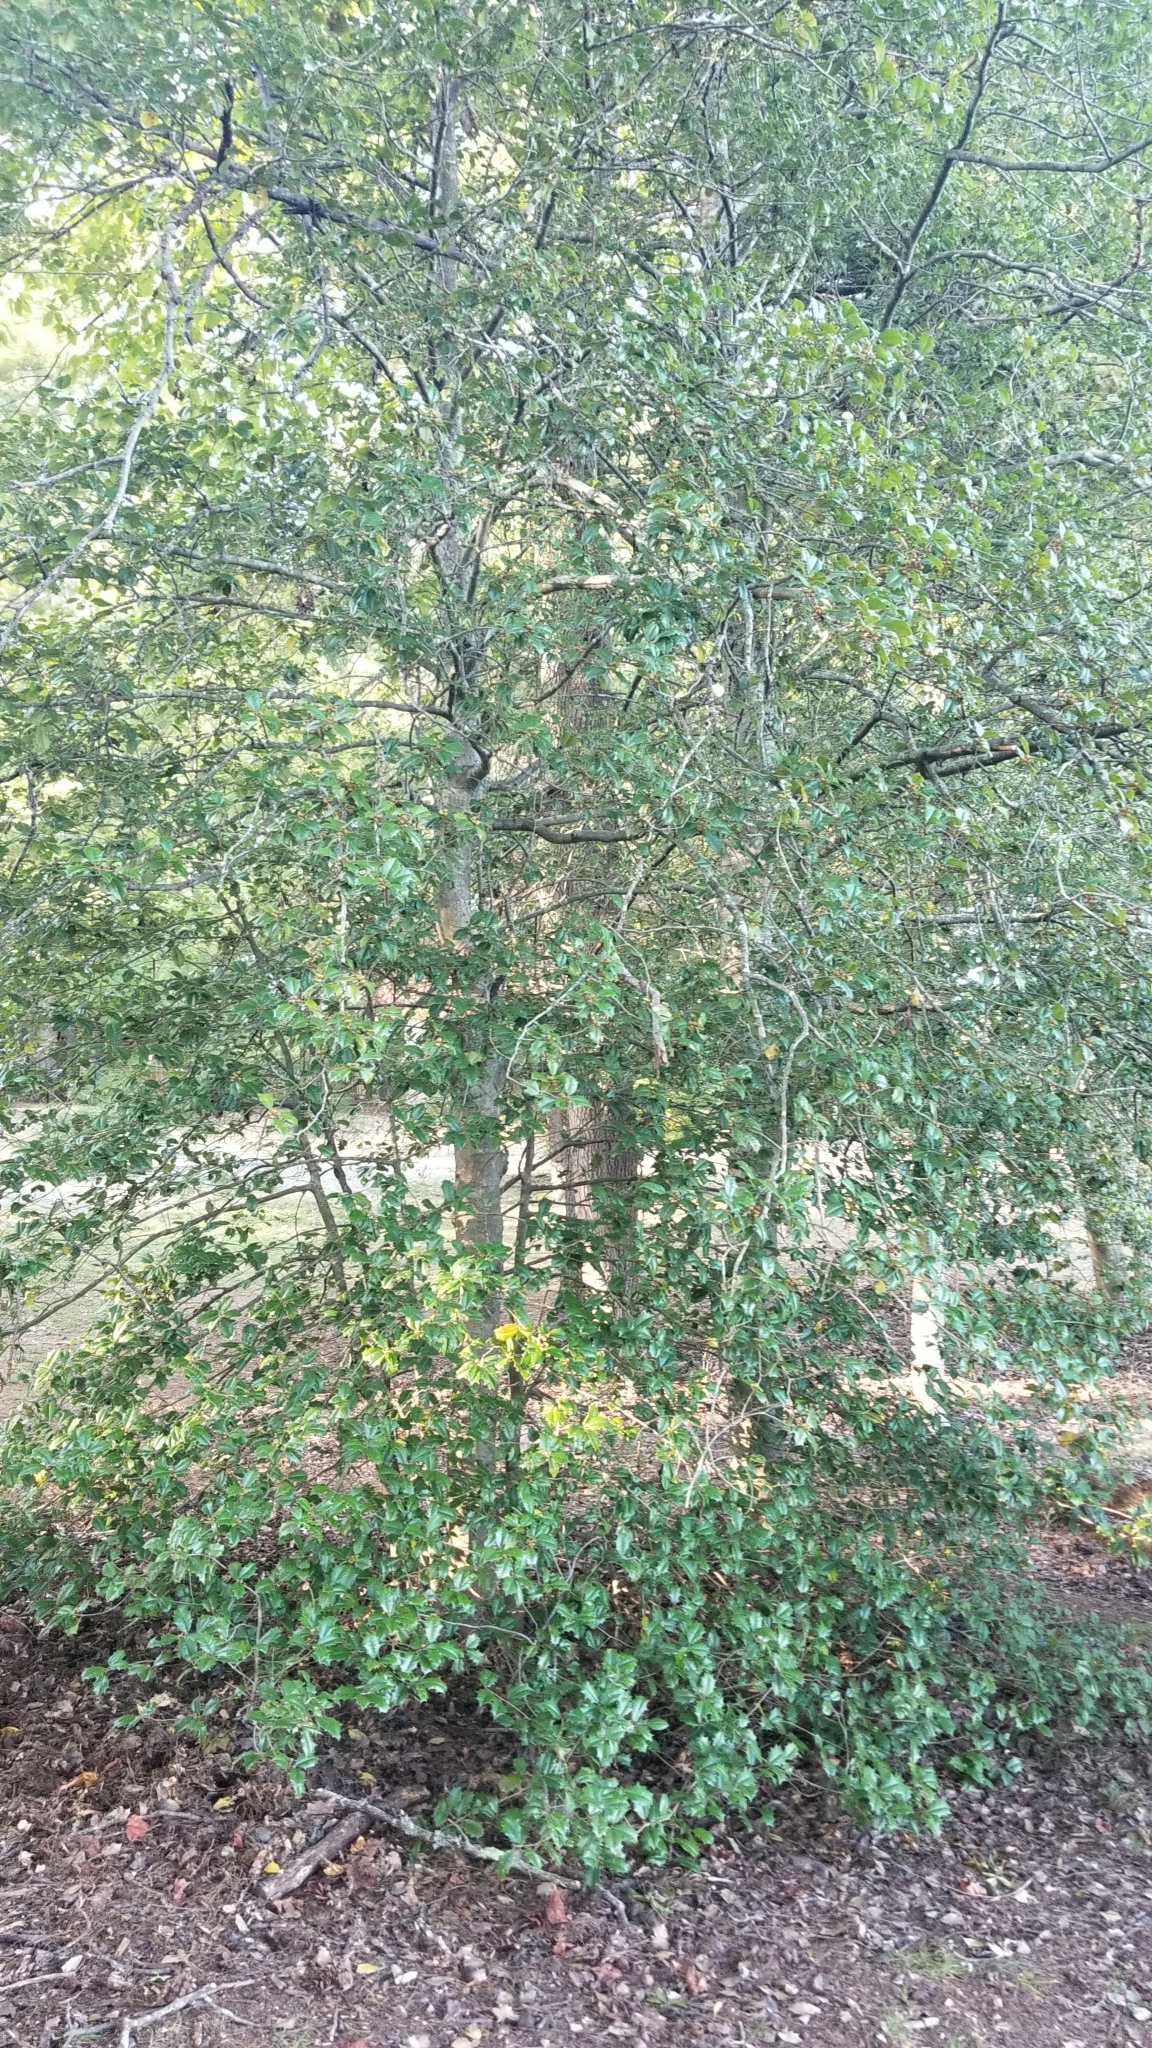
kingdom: Plantae
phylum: Tracheophyta
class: Magnoliopsida
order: Aquifoliales
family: Aquifoliaceae
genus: Ilex
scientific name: Ilex opaca
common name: American holly
